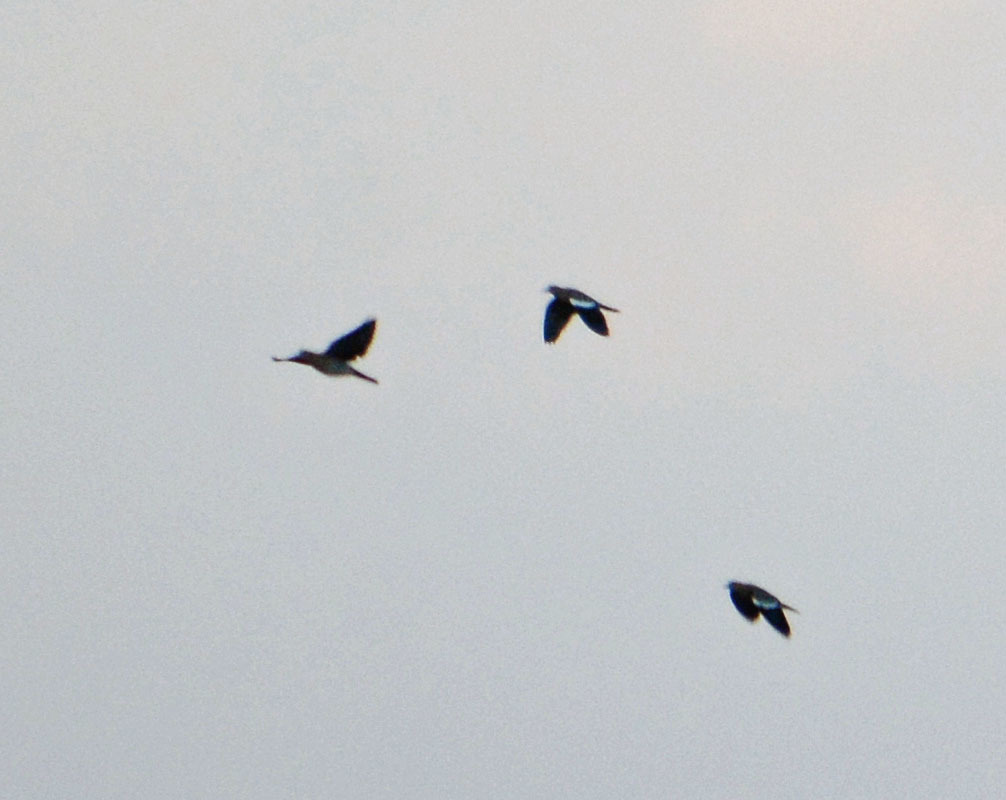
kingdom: Animalia
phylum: Chordata
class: Aves
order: Columbiformes
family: Columbidae
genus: Zenaida
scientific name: Zenaida asiatica
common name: White-winged dove
